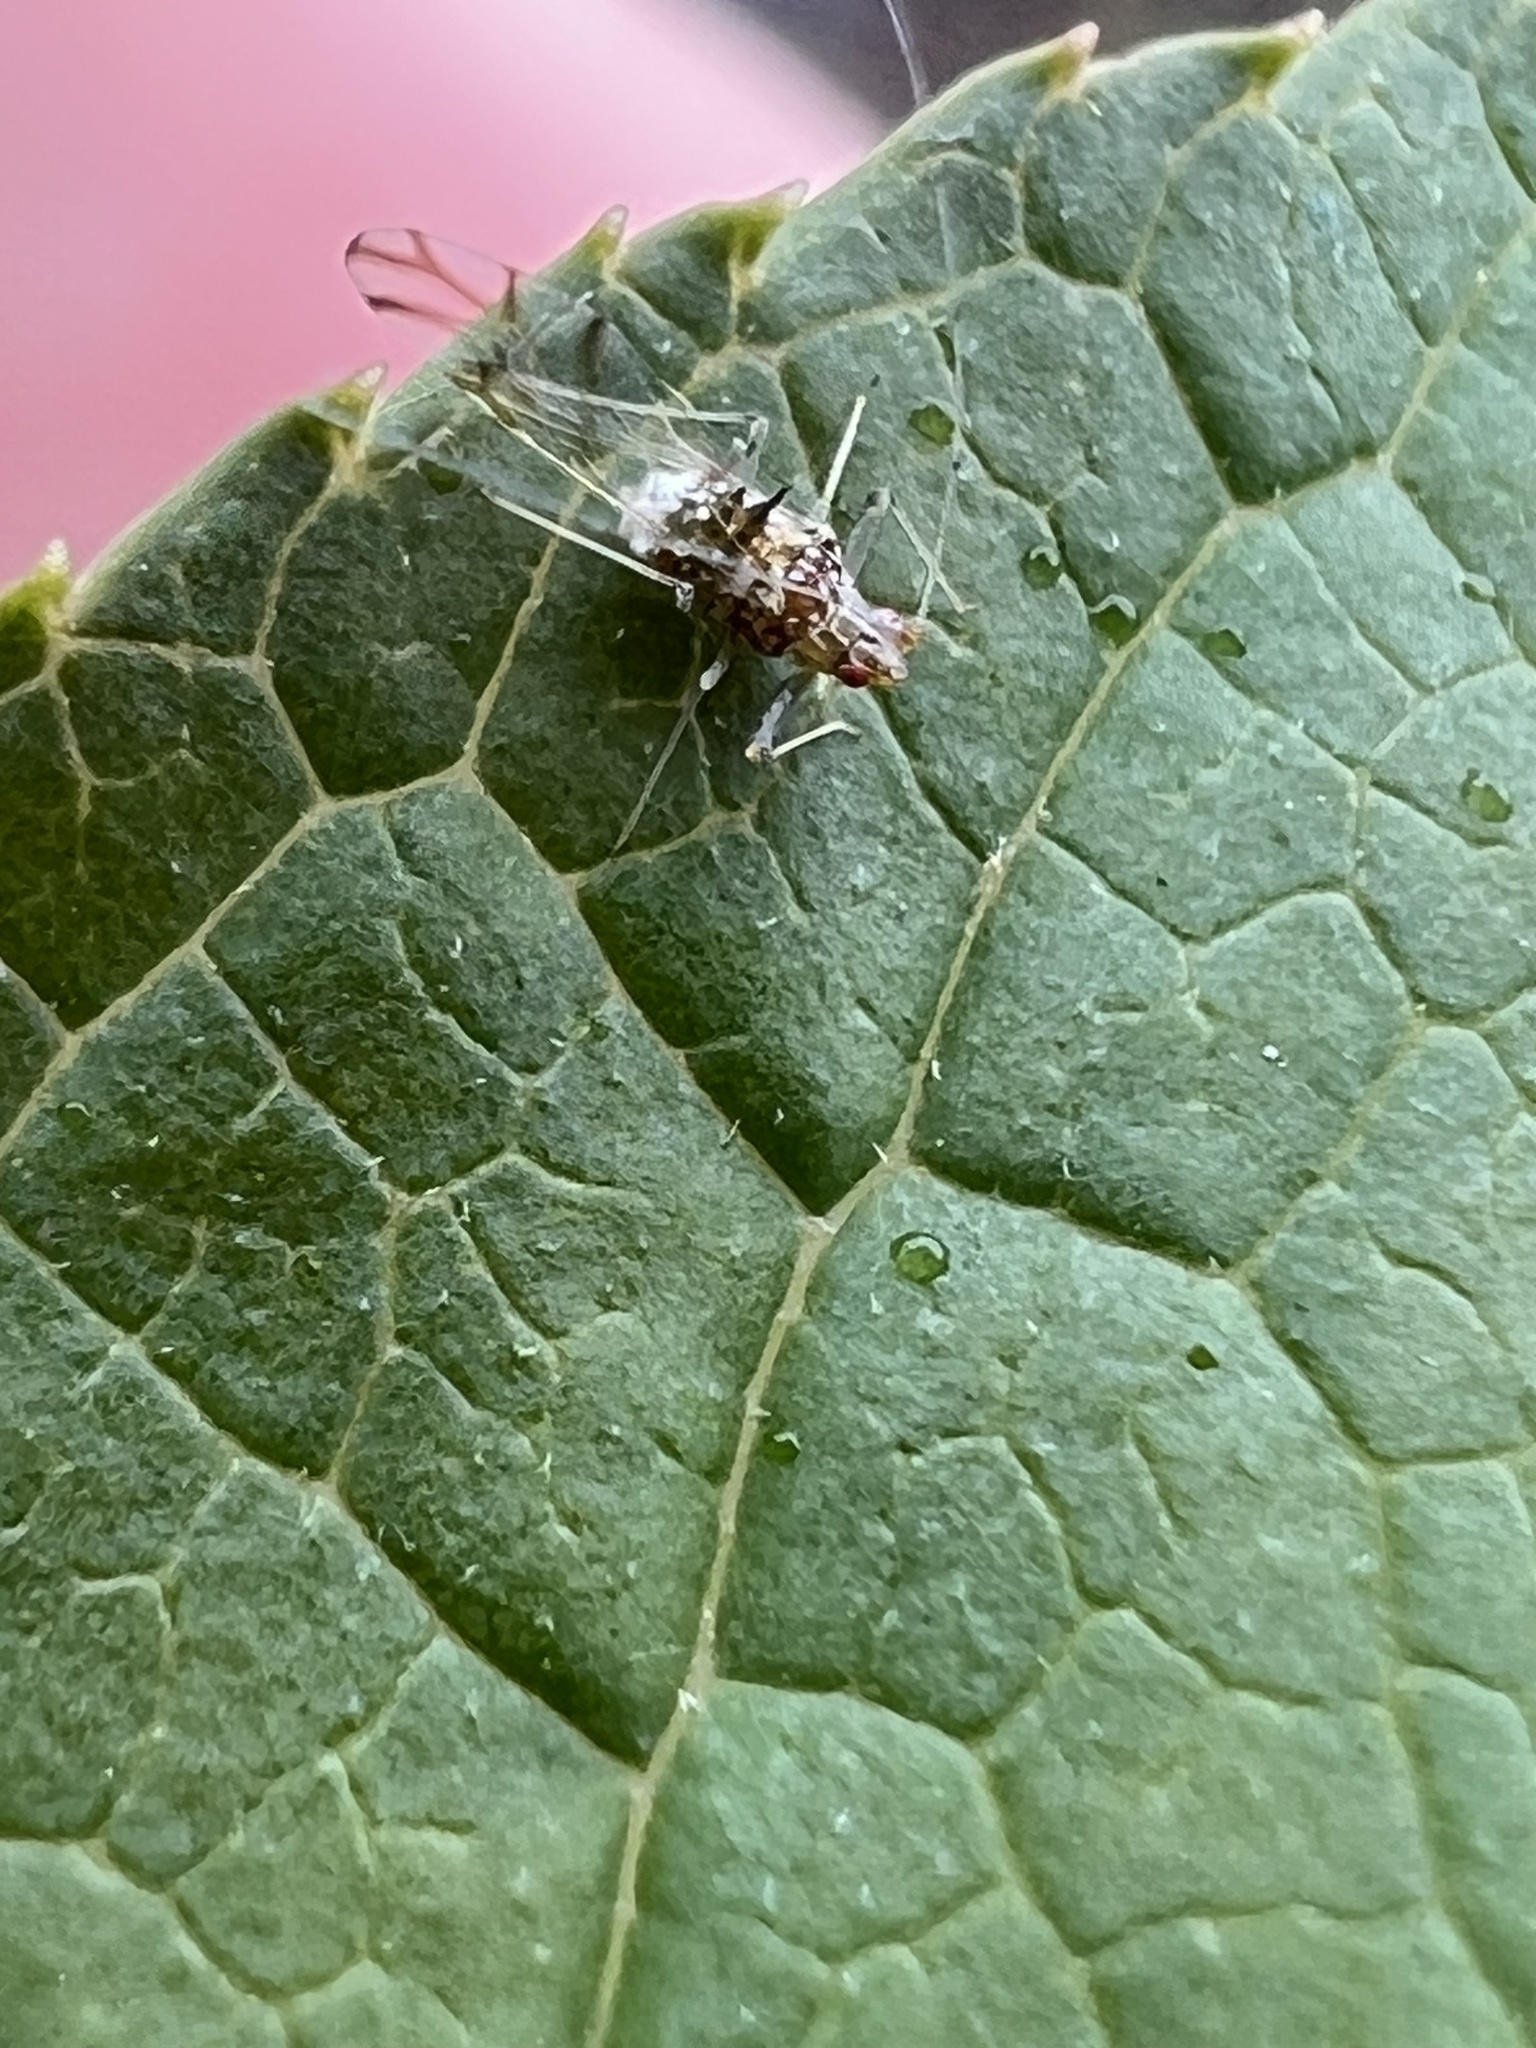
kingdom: Animalia
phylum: Arthropoda
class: Insecta
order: Hemiptera
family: Aphididae
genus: Drepanaphis
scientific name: Drepanaphis acerifoliae
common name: Painted maple aphid
